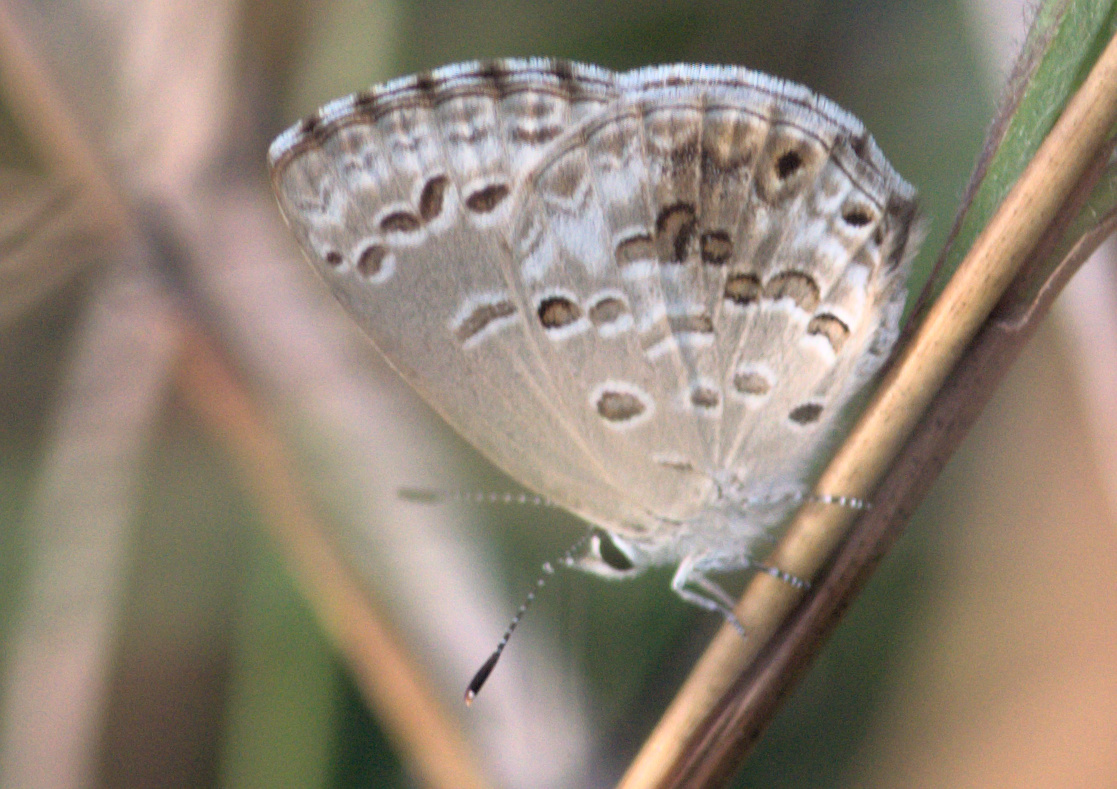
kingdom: Animalia
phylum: Arthropoda
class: Insecta
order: Lepidoptera
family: Lycaenidae
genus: Chilades
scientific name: Chilades laius
